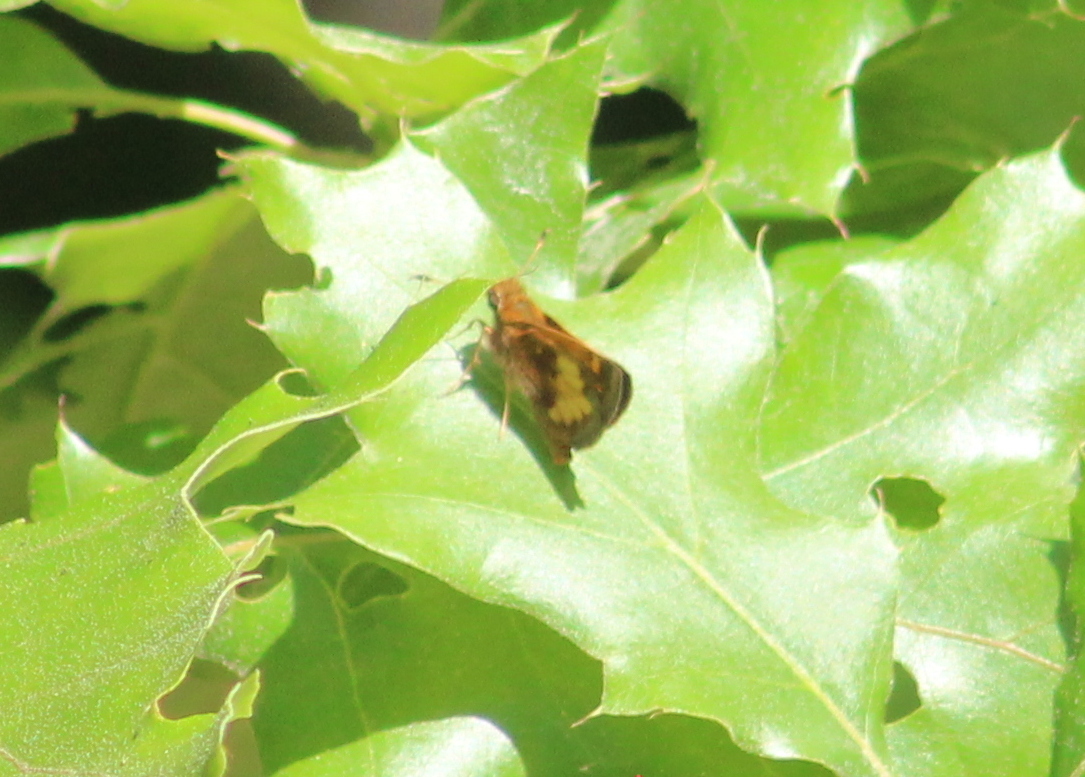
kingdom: Animalia
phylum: Arthropoda
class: Insecta
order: Lepidoptera
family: Hesperiidae
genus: Lon
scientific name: Lon hobomok
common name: Hobomok skipper
